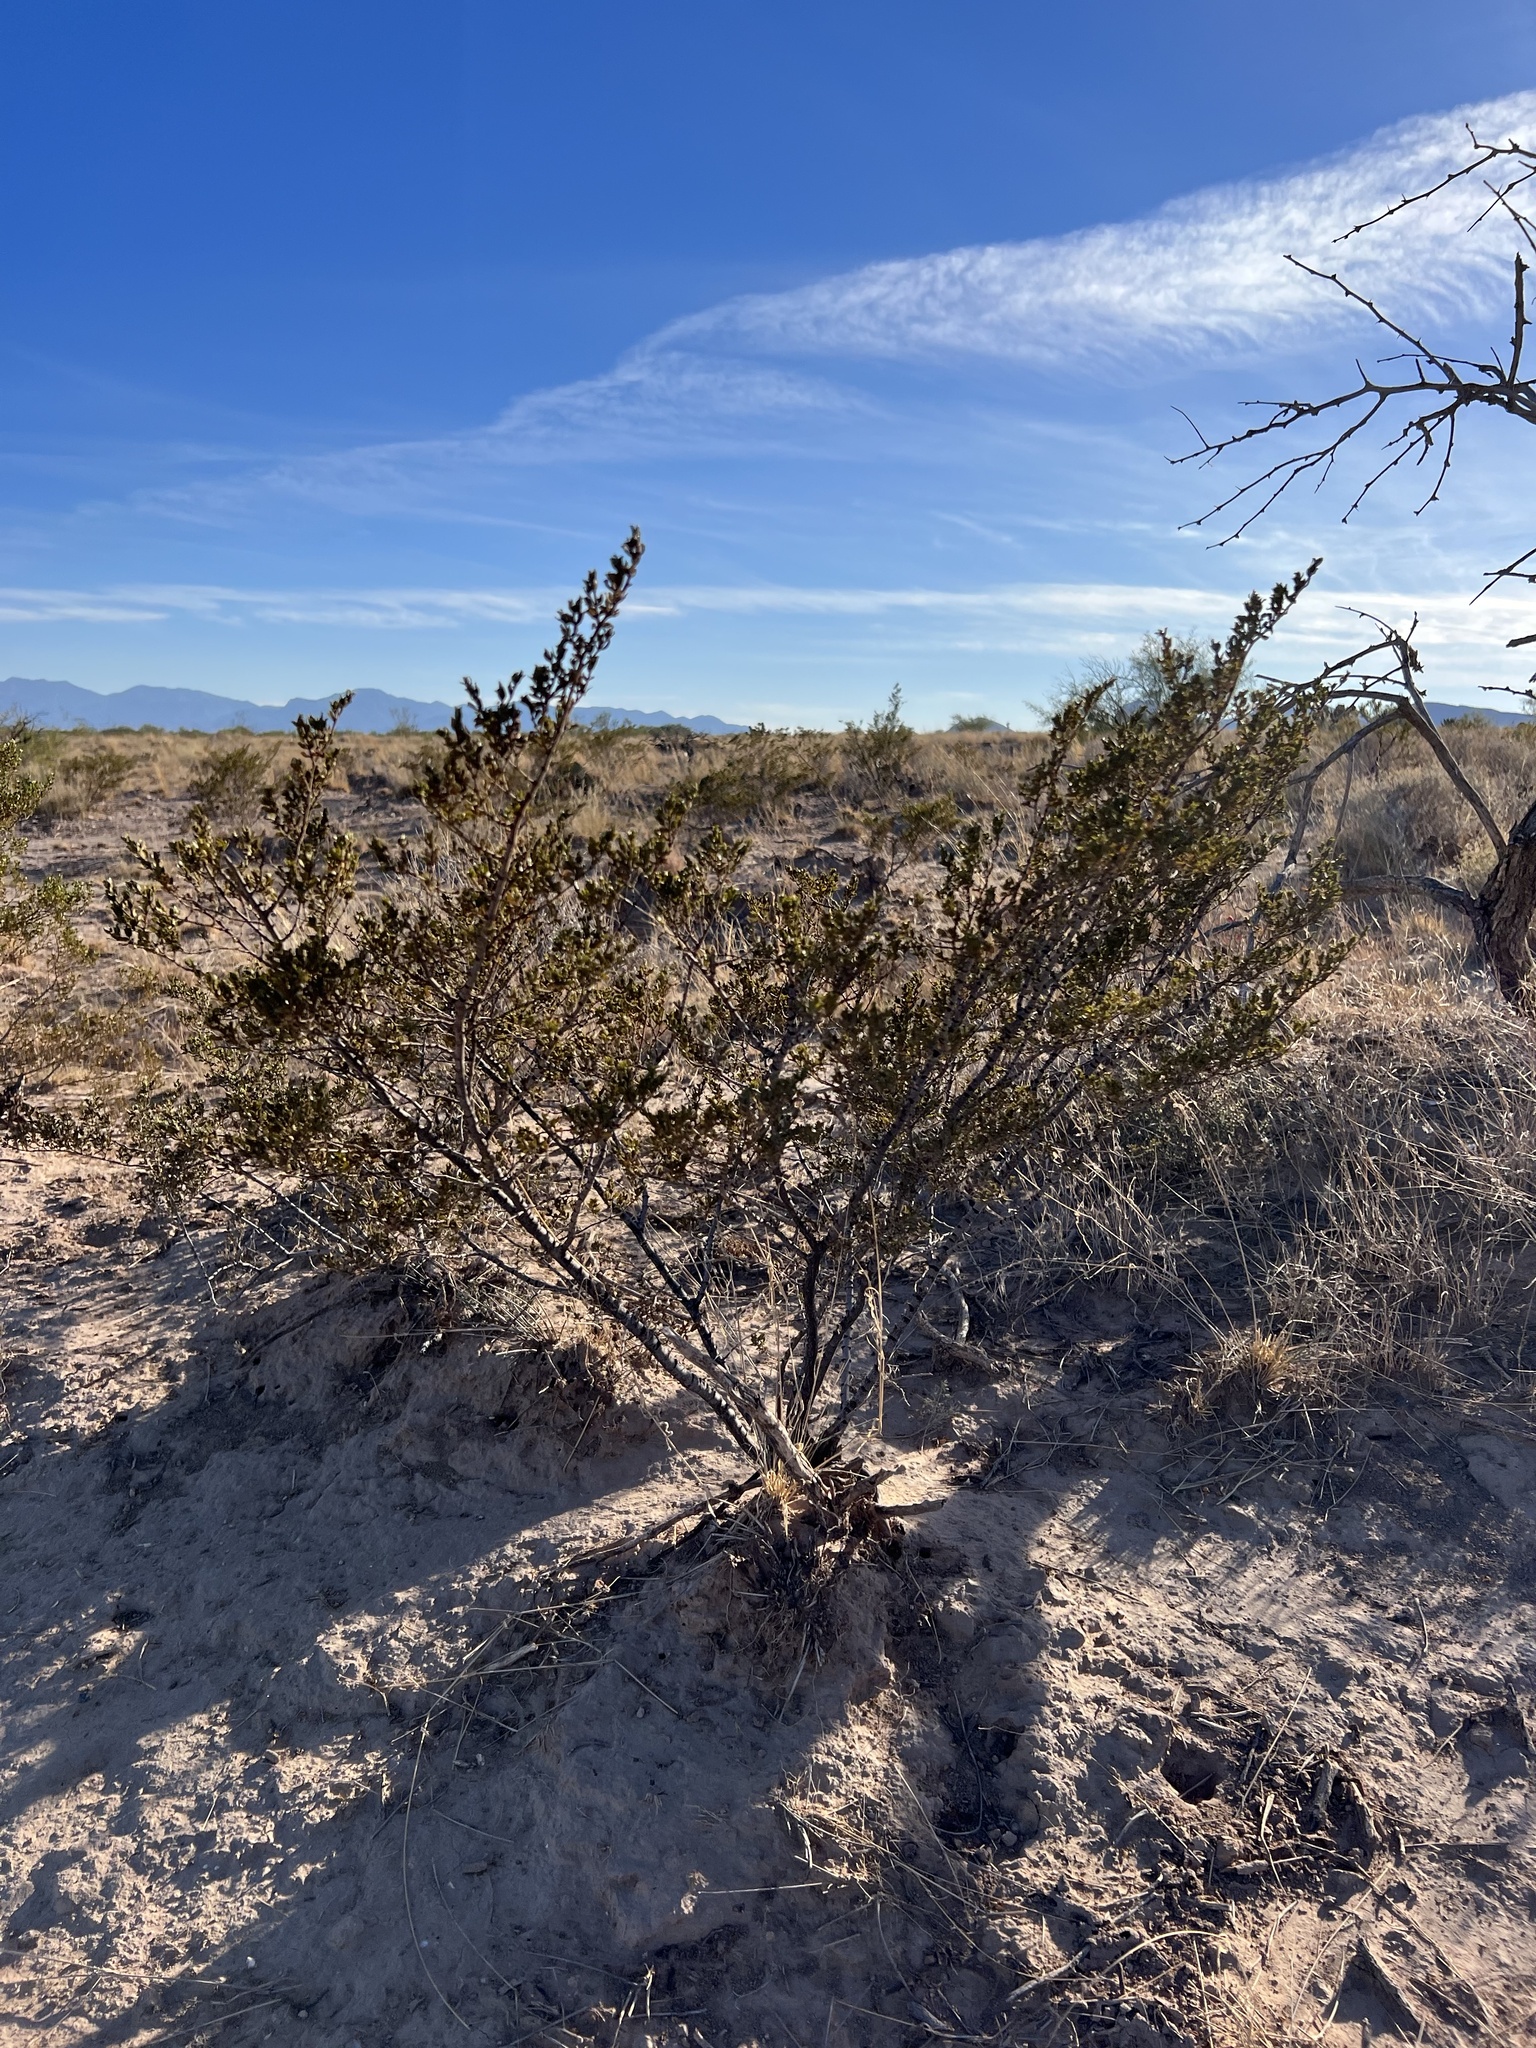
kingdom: Plantae
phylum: Tracheophyta
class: Magnoliopsida
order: Zygophyllales
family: Zygophyllaceae
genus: Larrea
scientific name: Larrea tridentata
